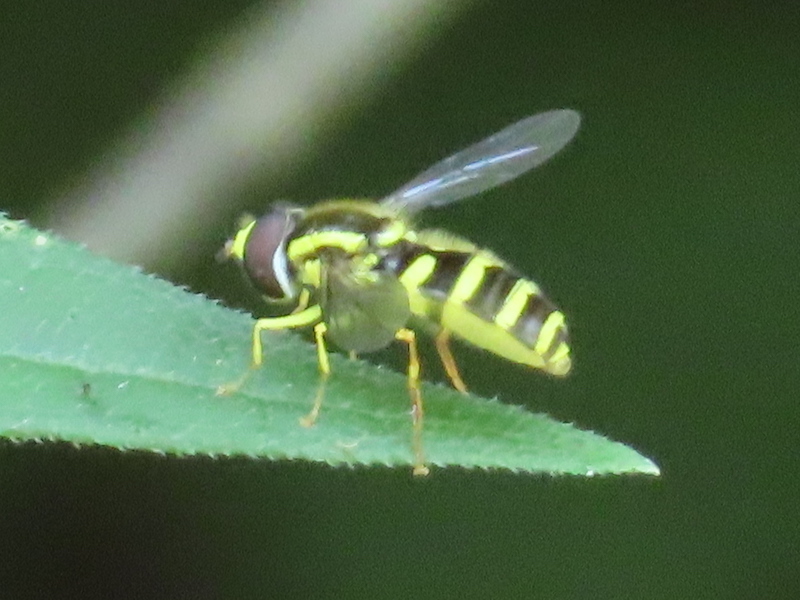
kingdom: Animalia
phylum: Arthropoda
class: Insecta
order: Diptera
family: Syrphidae
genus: Philhelius
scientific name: Philhelius flavipes
